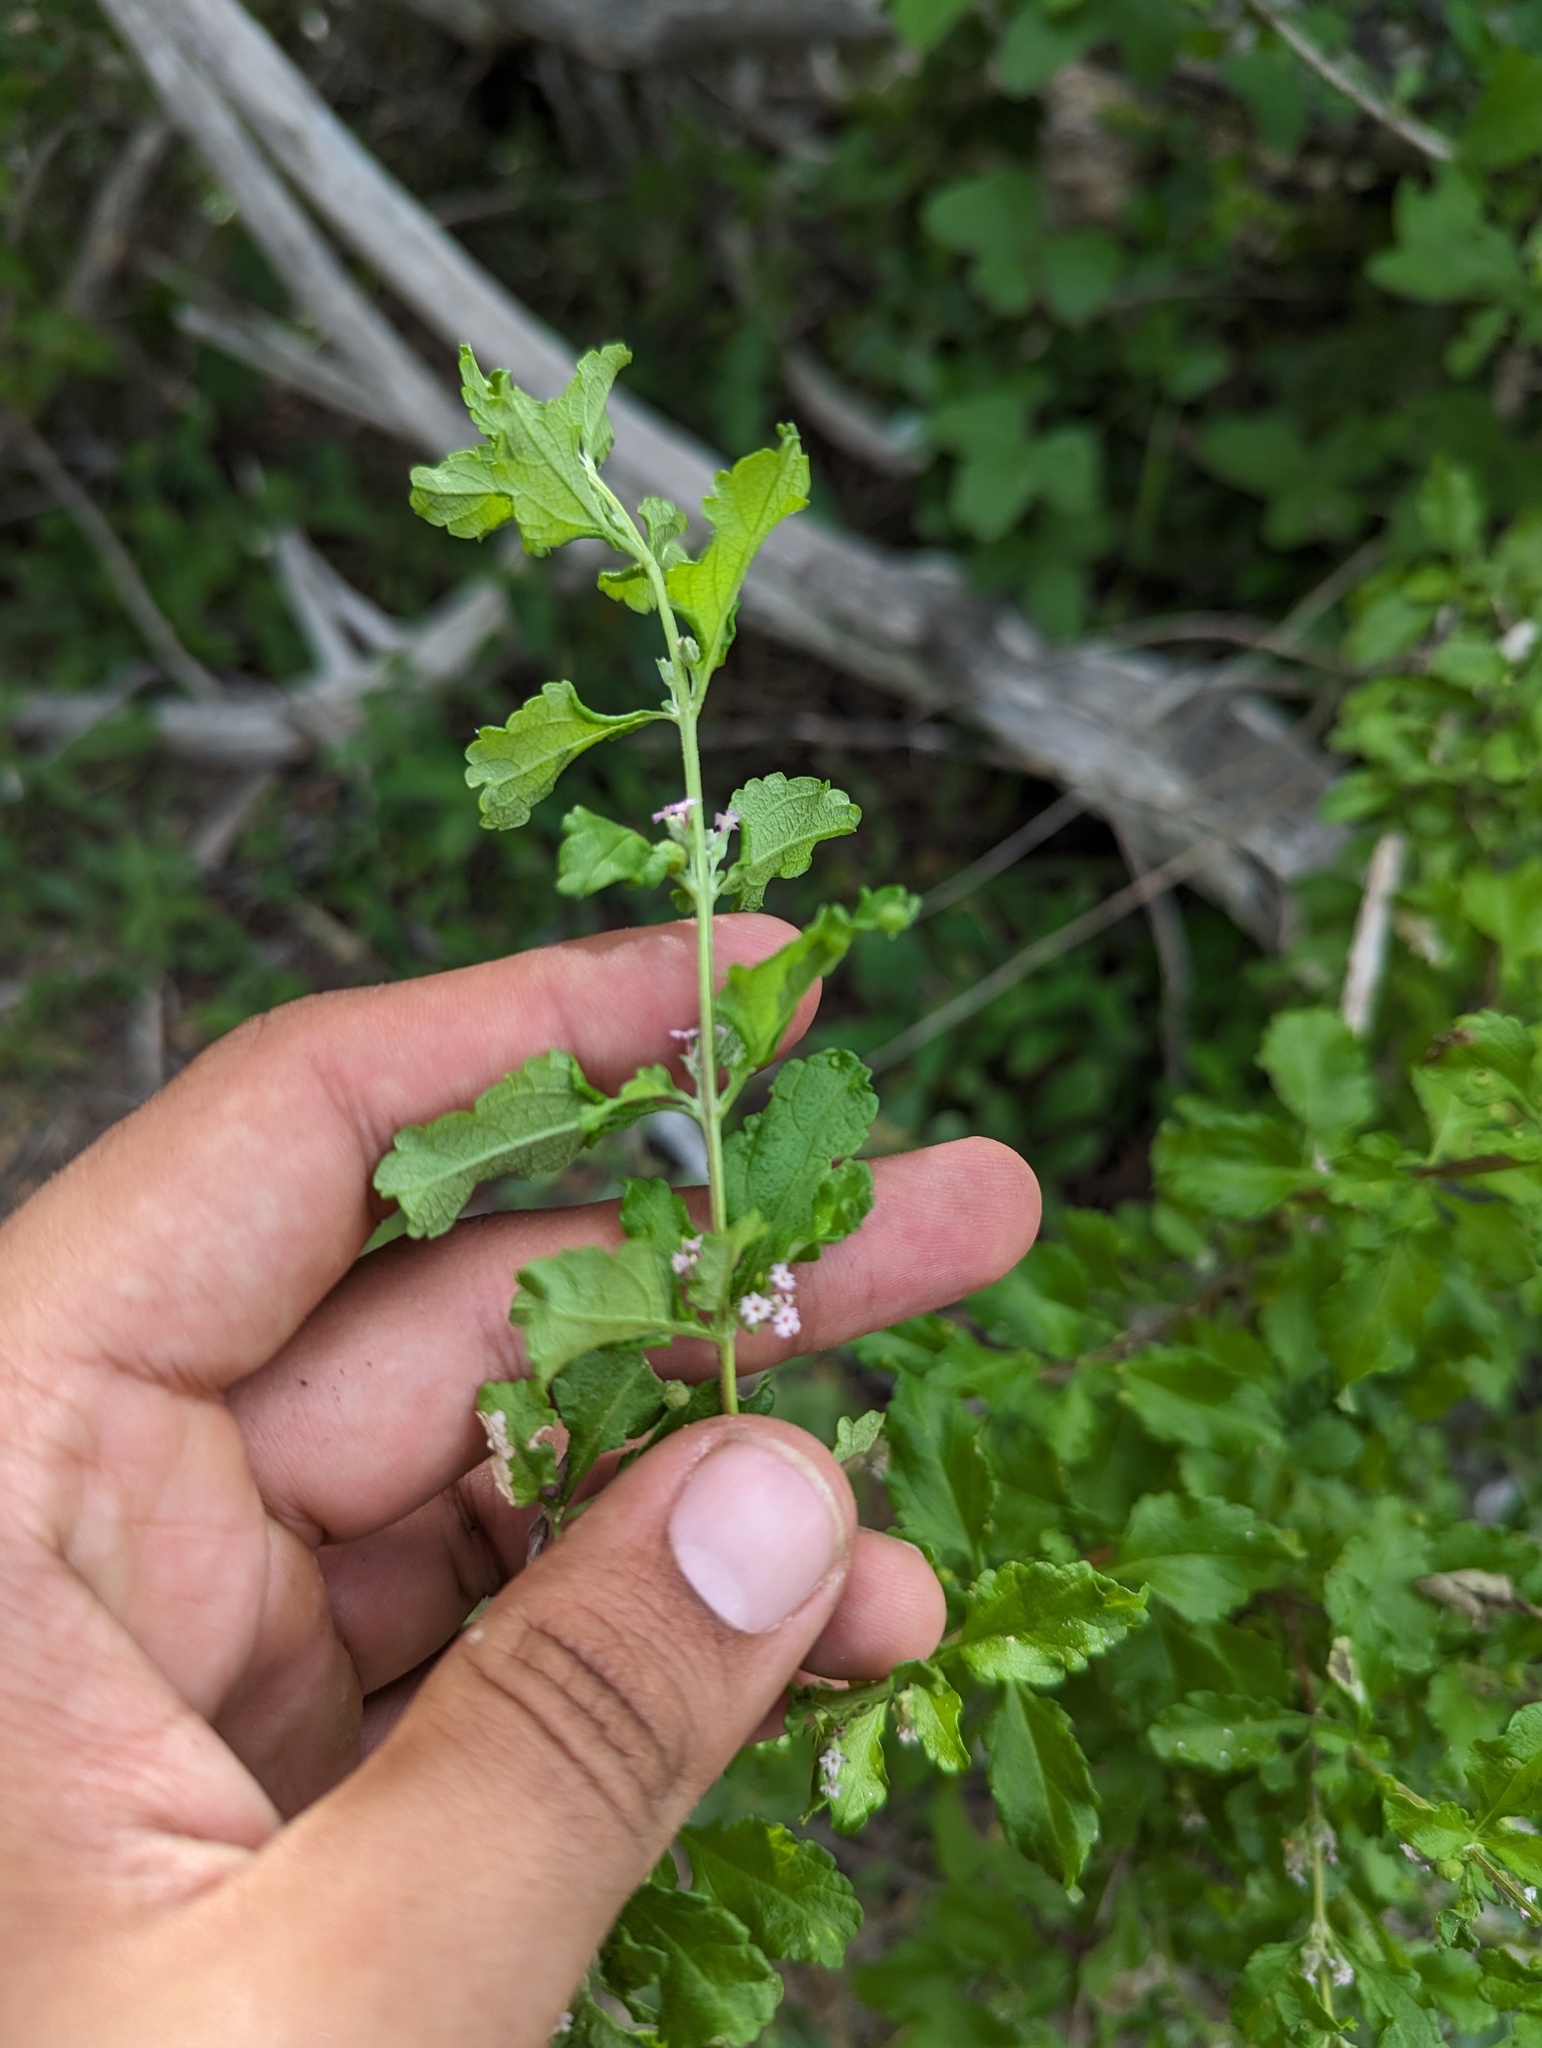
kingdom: Plantae
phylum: Tracheophyta
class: Magnoliopsida
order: Lamiales
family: Verbenaceae
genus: Lippia
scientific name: Lippia origanoides
